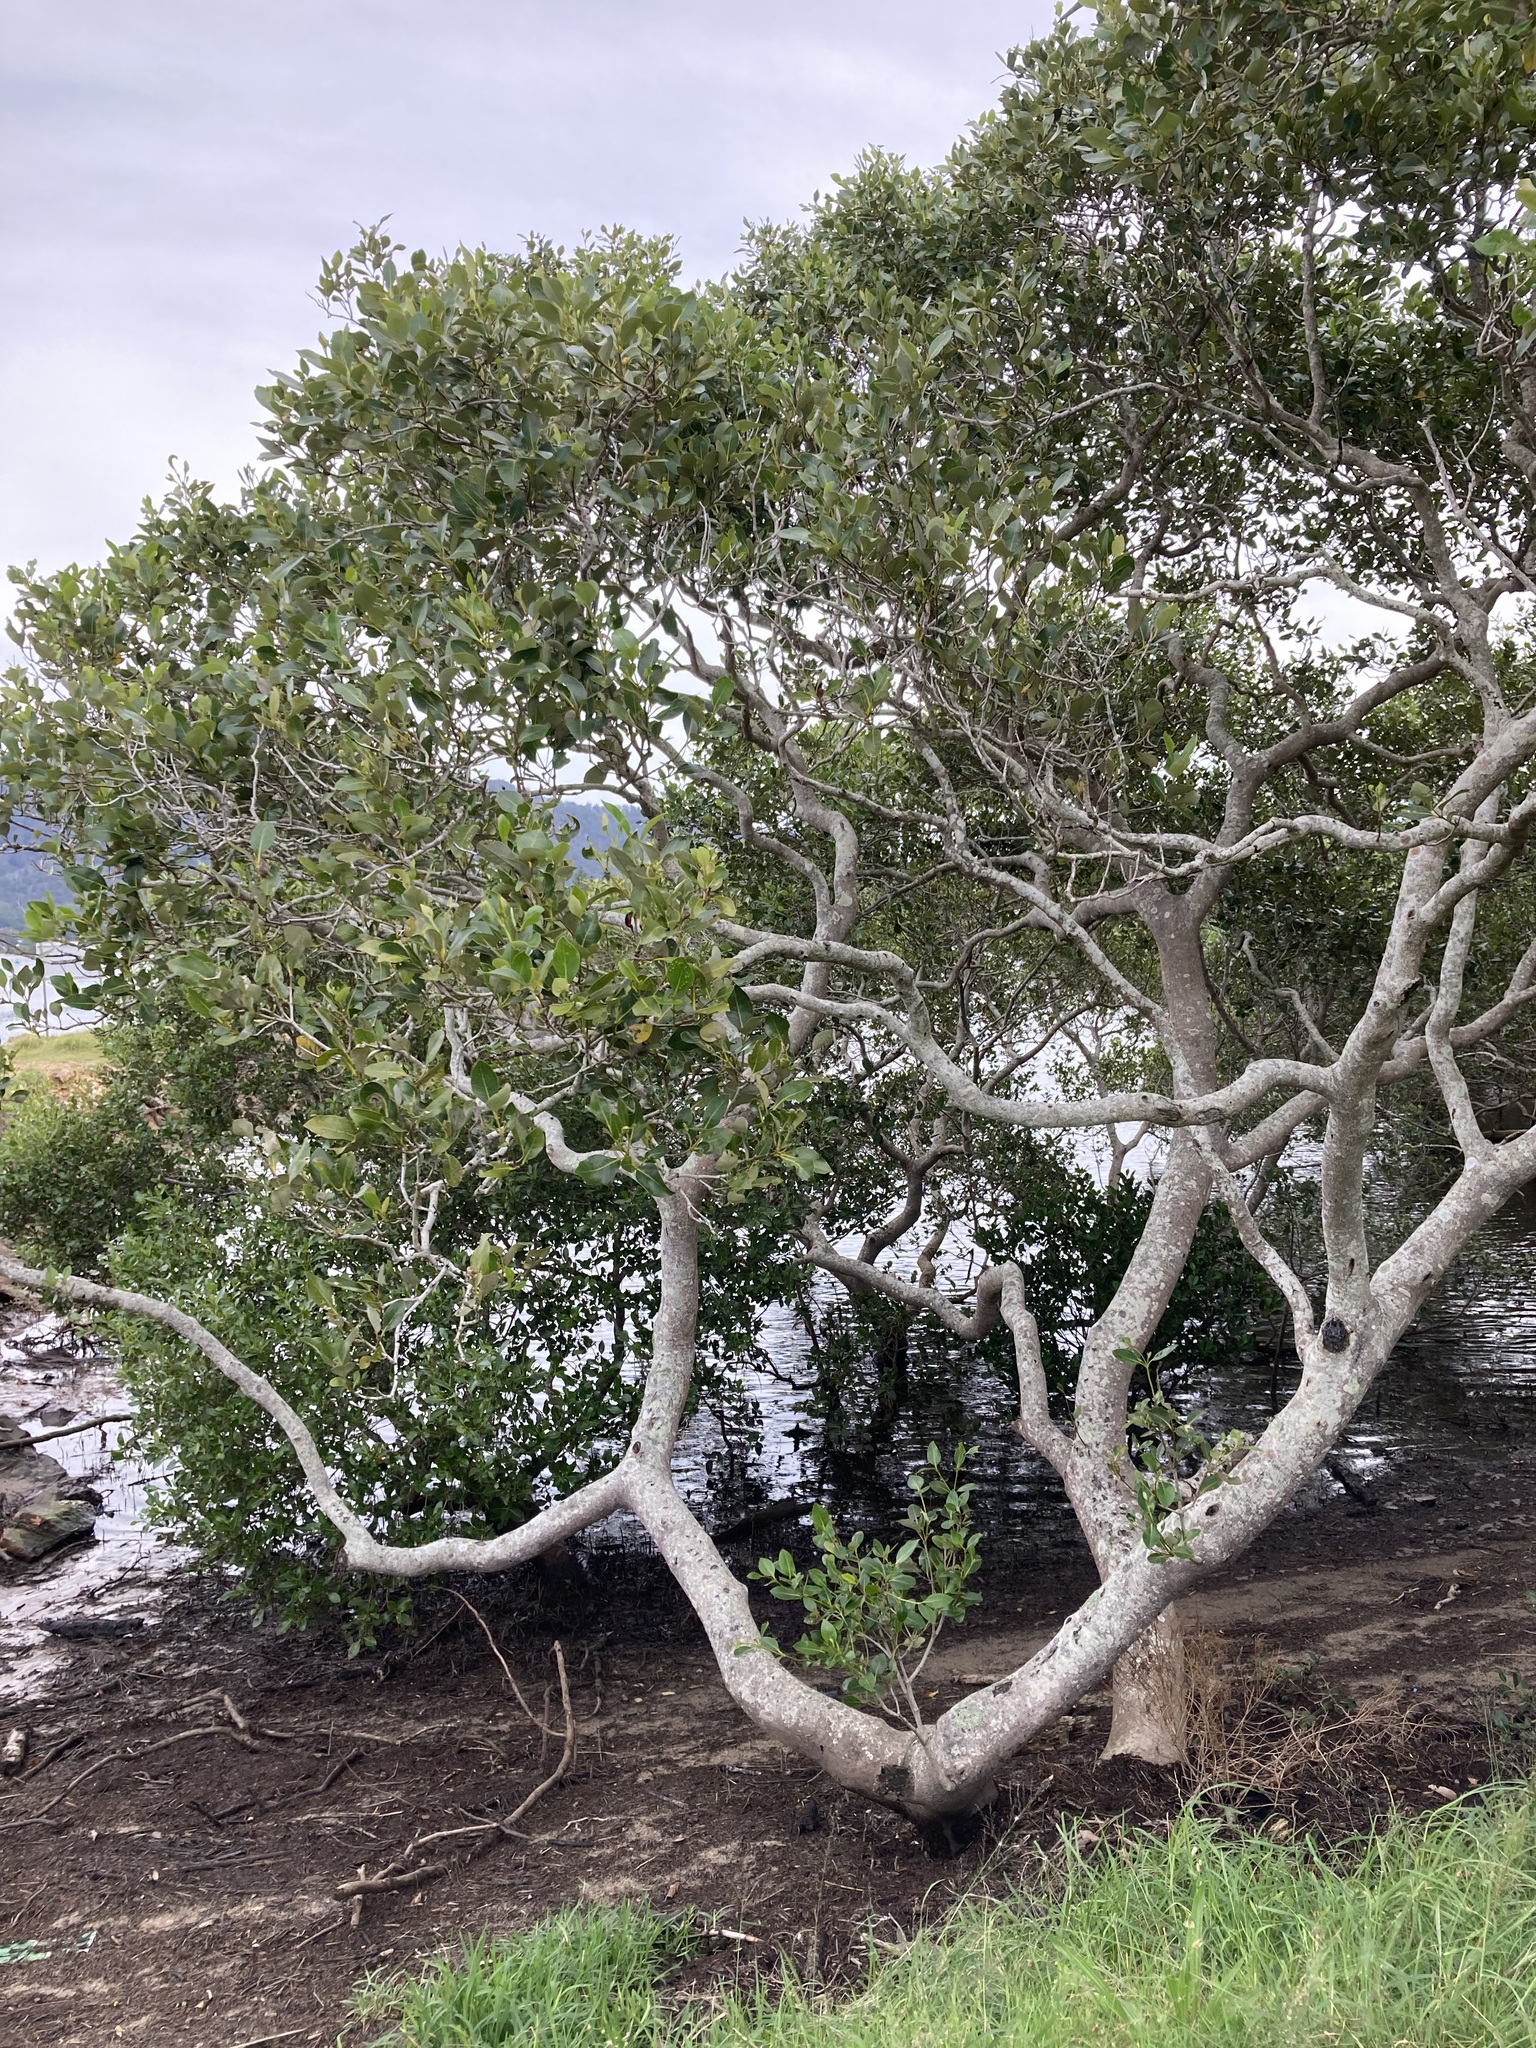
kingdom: Plantae
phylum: Tracheophyta
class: Magnoliopsida
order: Lamiales
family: Acanthaceae
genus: Avicennia
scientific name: Avicennia marina
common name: Gray mangrove
